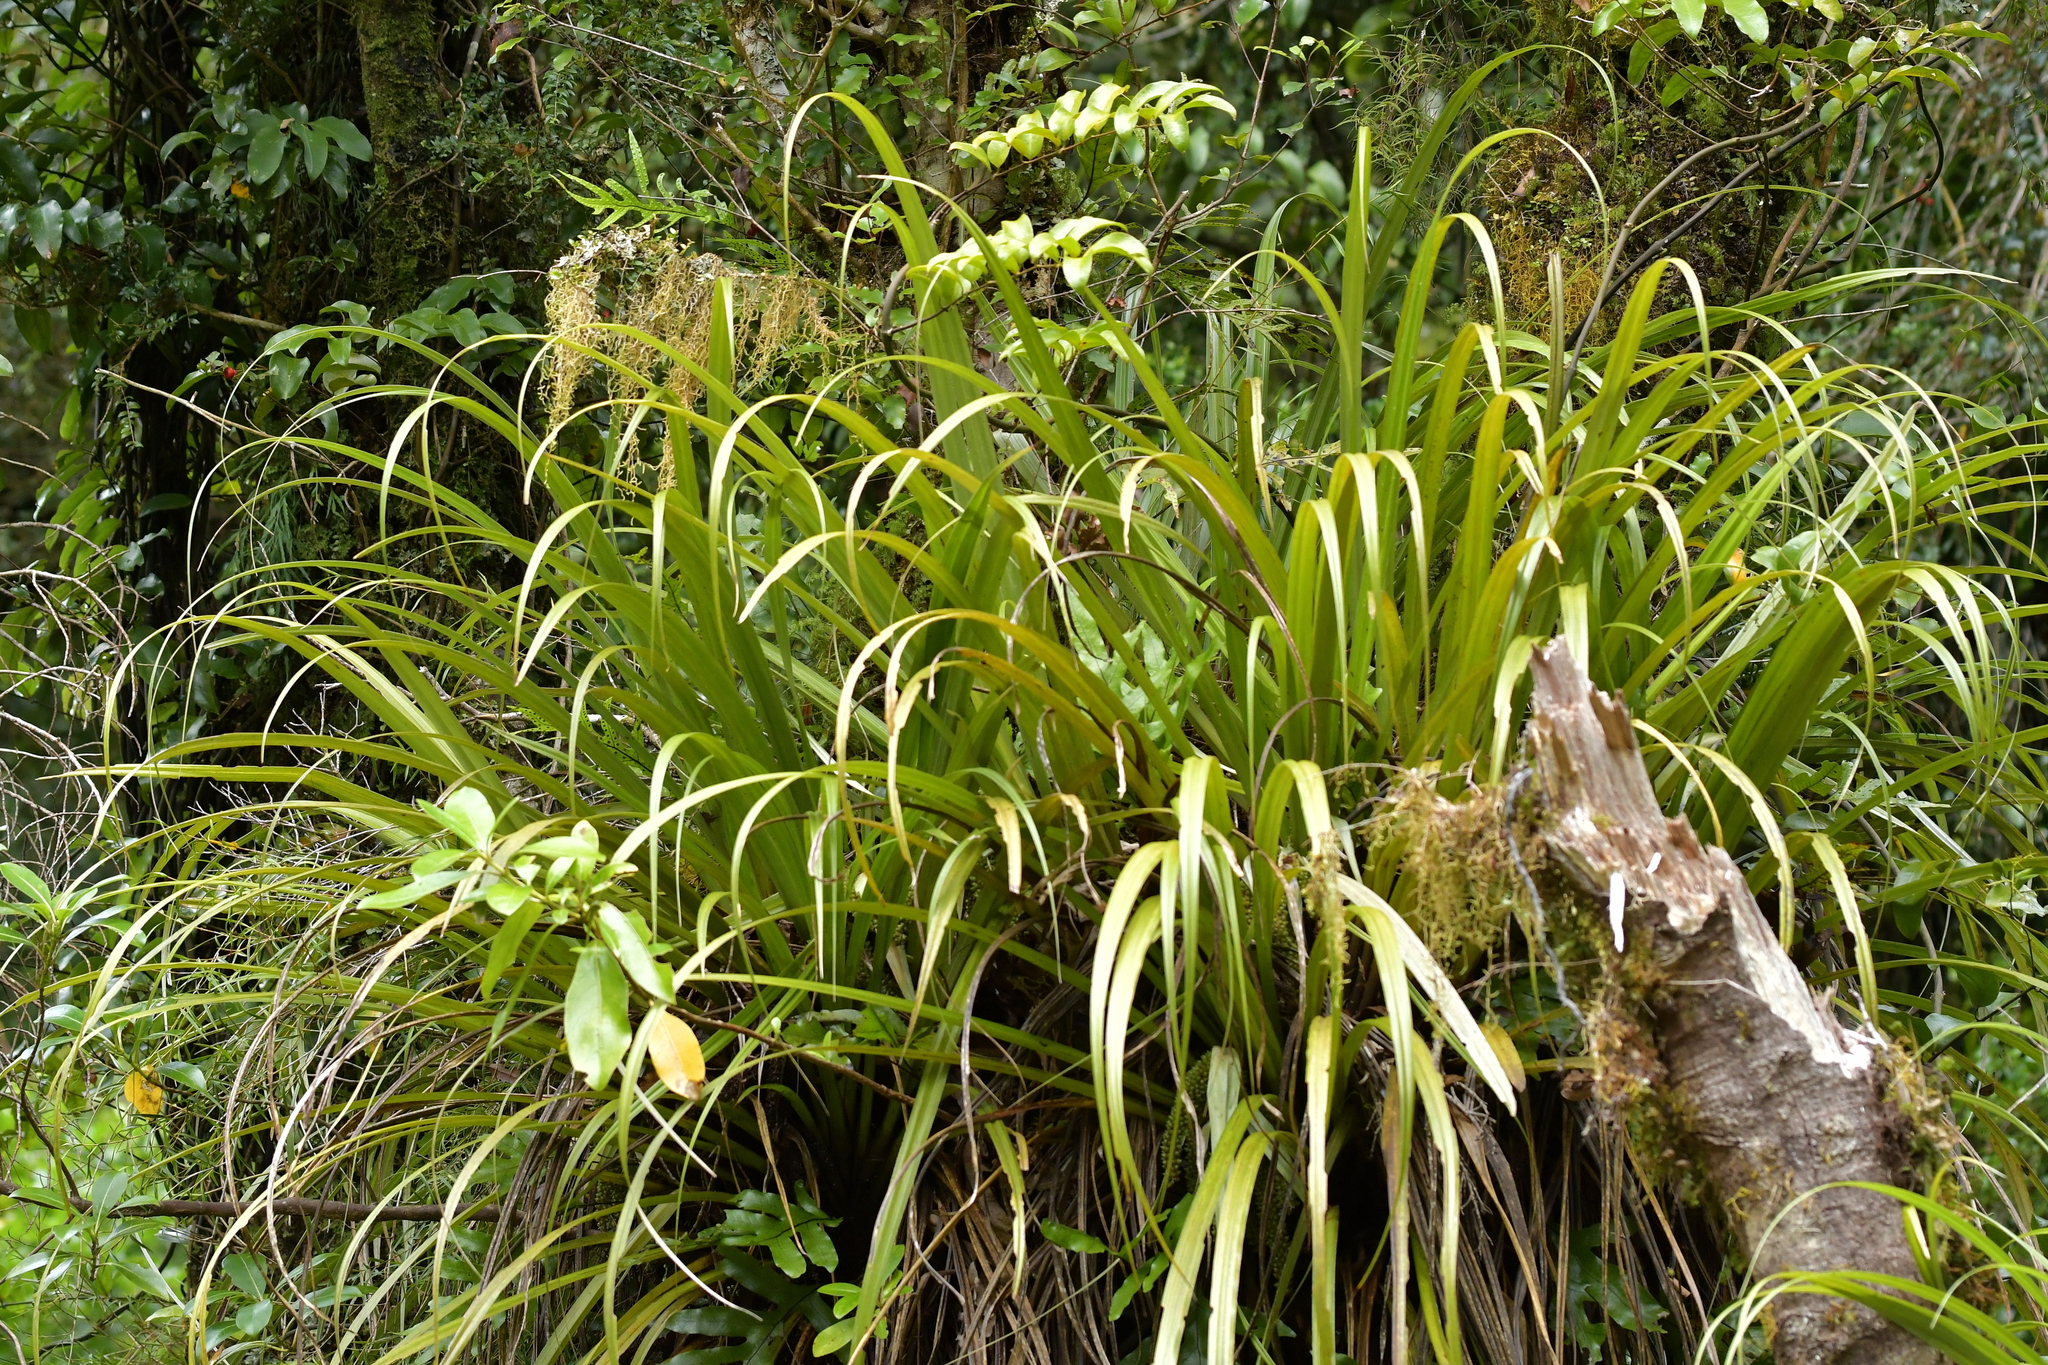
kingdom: Plantae
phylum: Tracheophyta
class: Liliopsida
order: Asparagales
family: Asteliaceae
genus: Astelia
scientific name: Astelia microsperma
